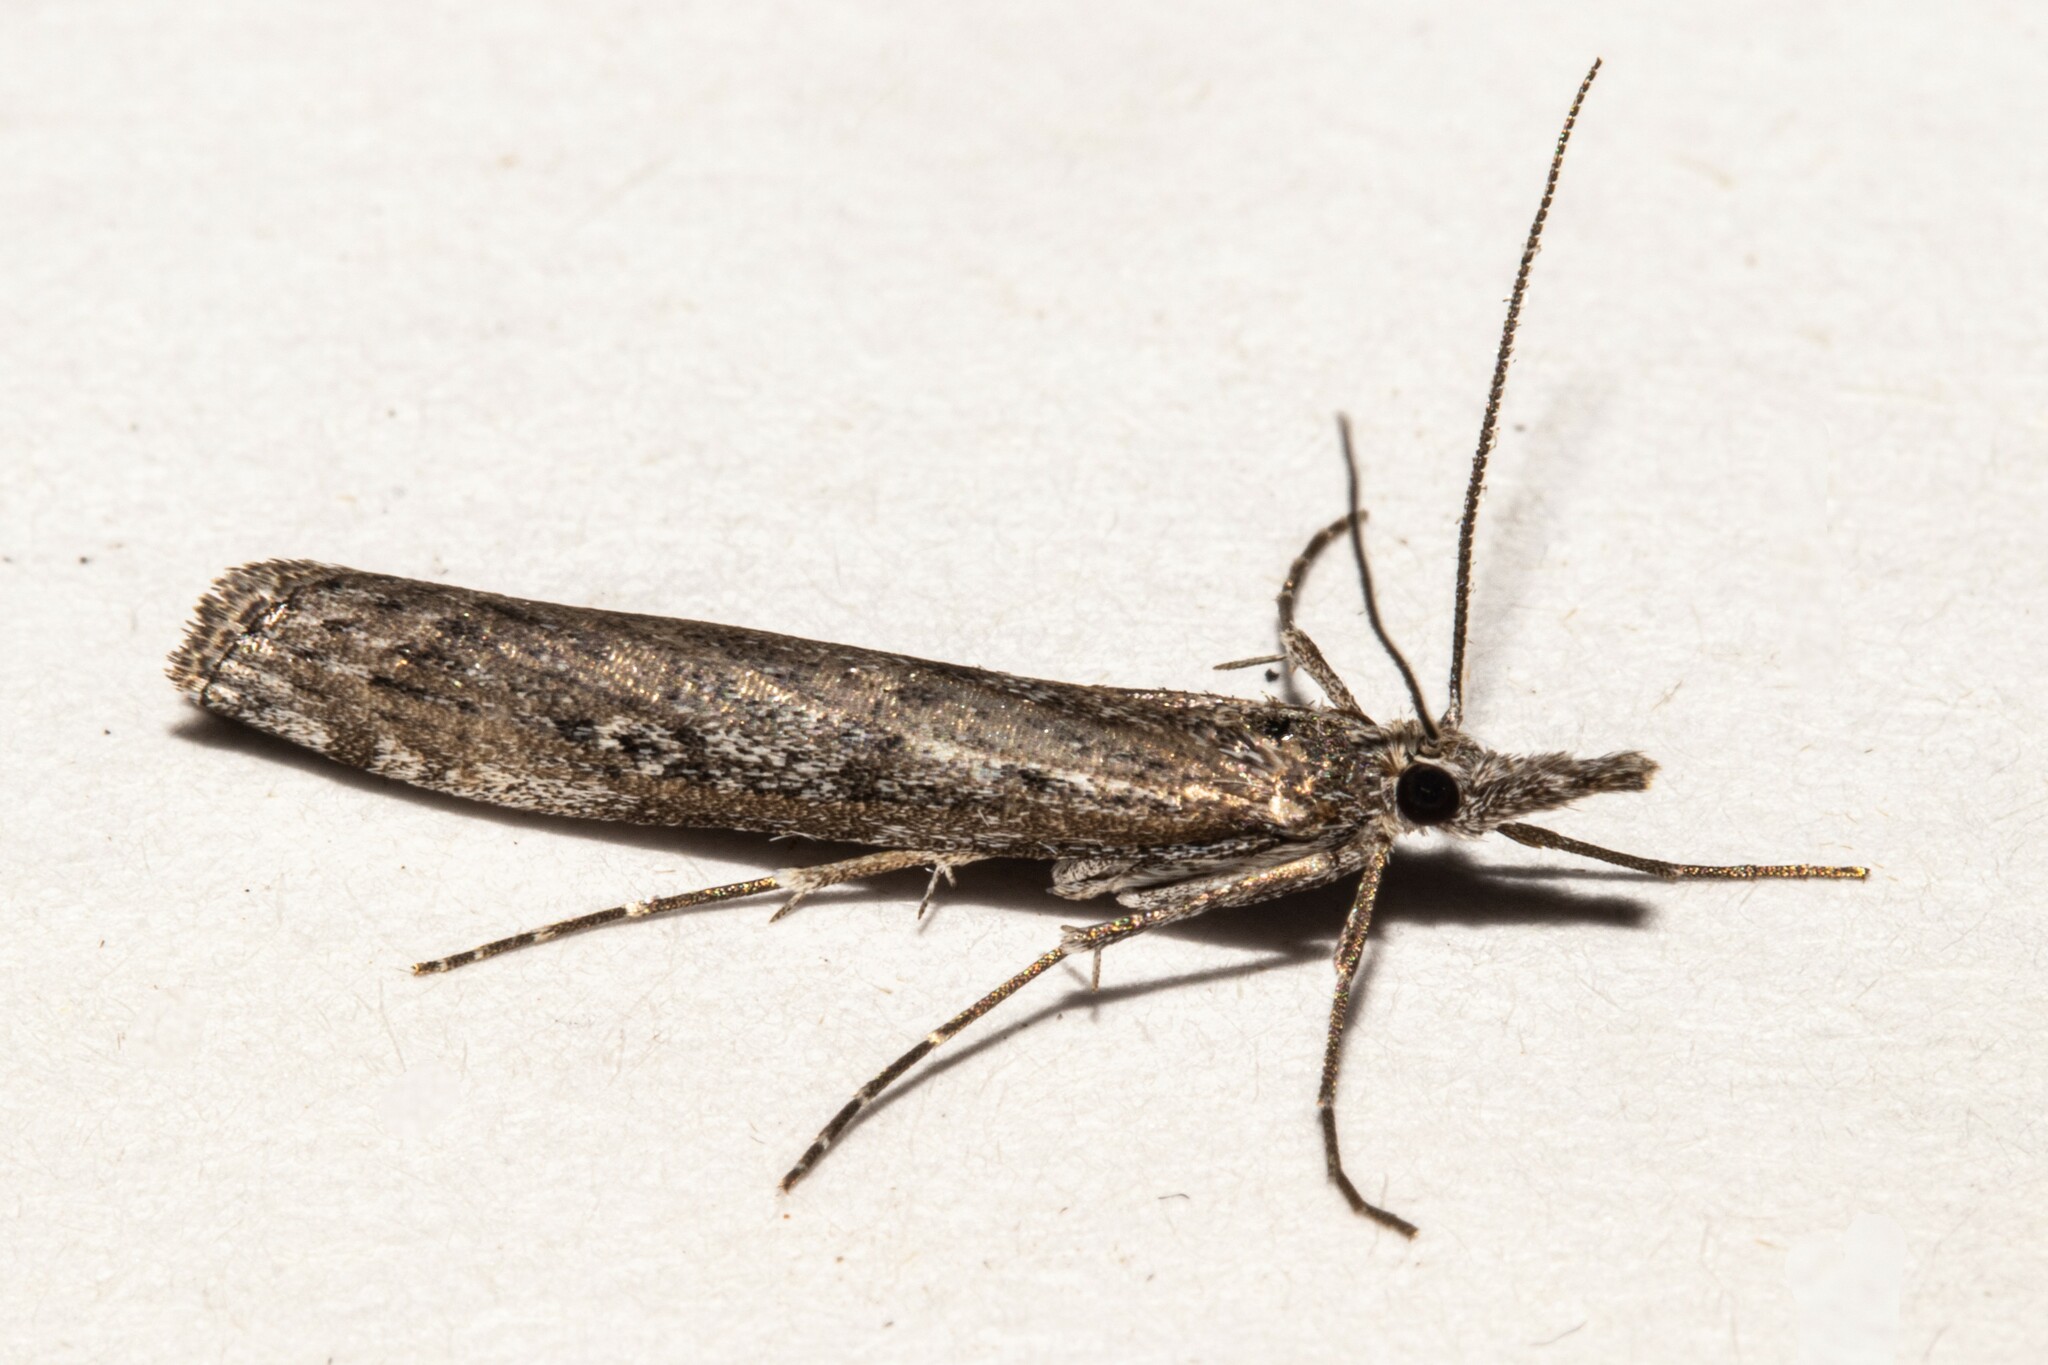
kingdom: Animalia
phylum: Arthropoda
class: Insecta
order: Lepidoptera
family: Crambidae
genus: Orocrambus
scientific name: Orocrambus cyclopicus
